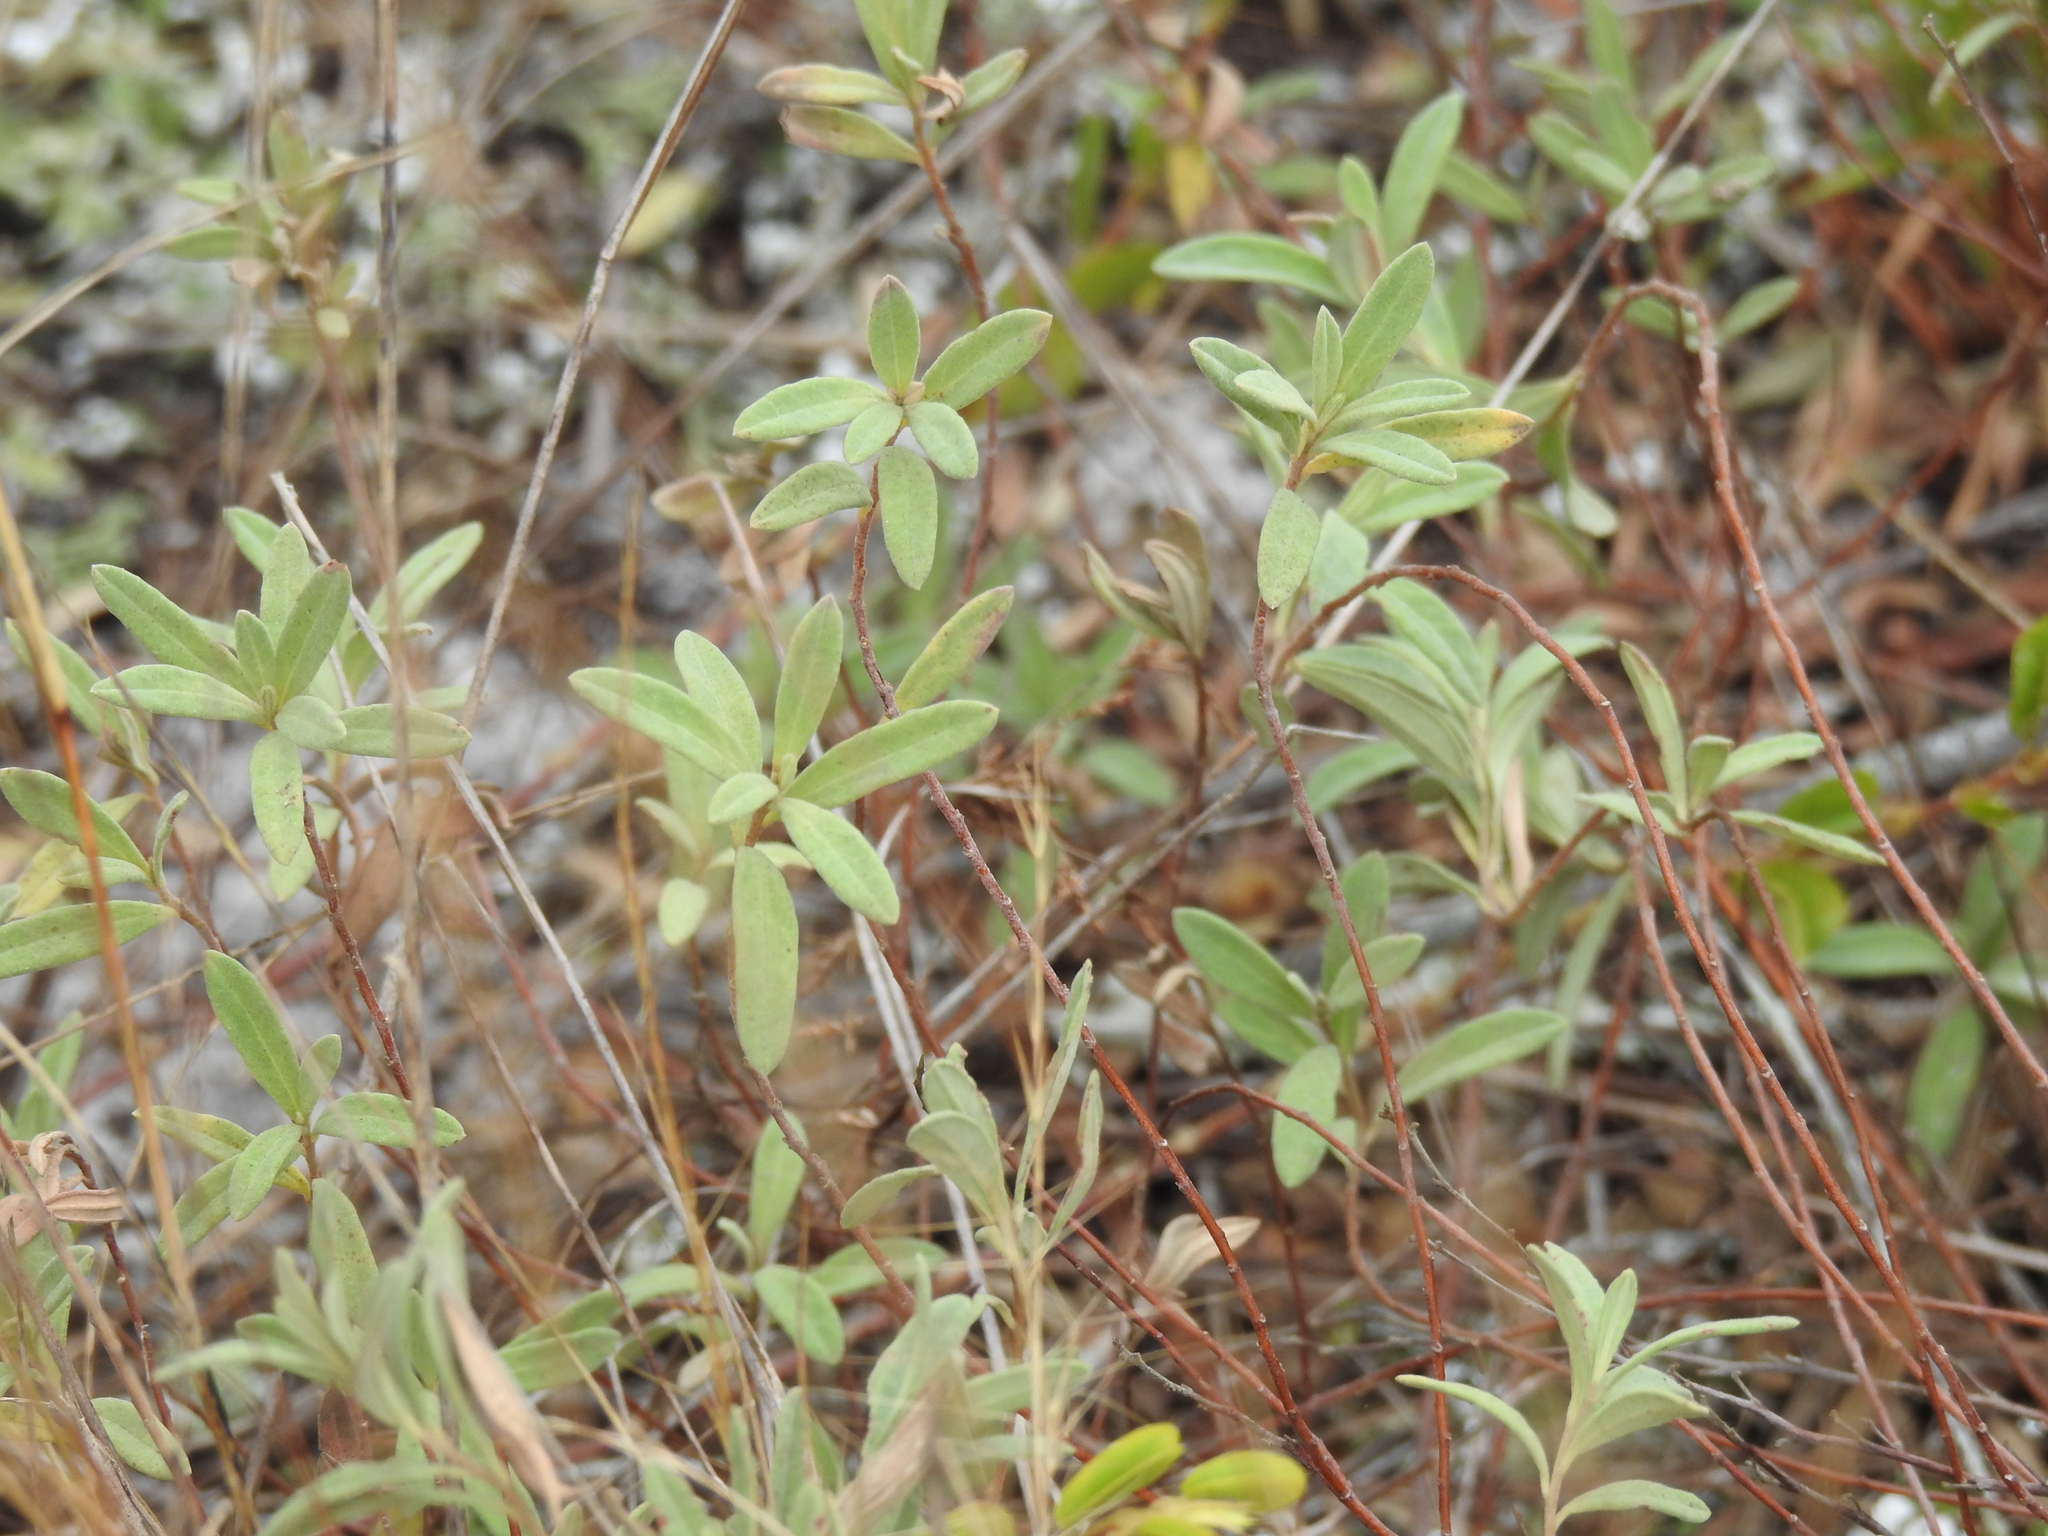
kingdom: Plantae
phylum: Tracheophyta
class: Magnoliopsida
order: Malvales
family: Cistaceae
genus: Crocanthemum
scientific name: Crocanthemum nashii
